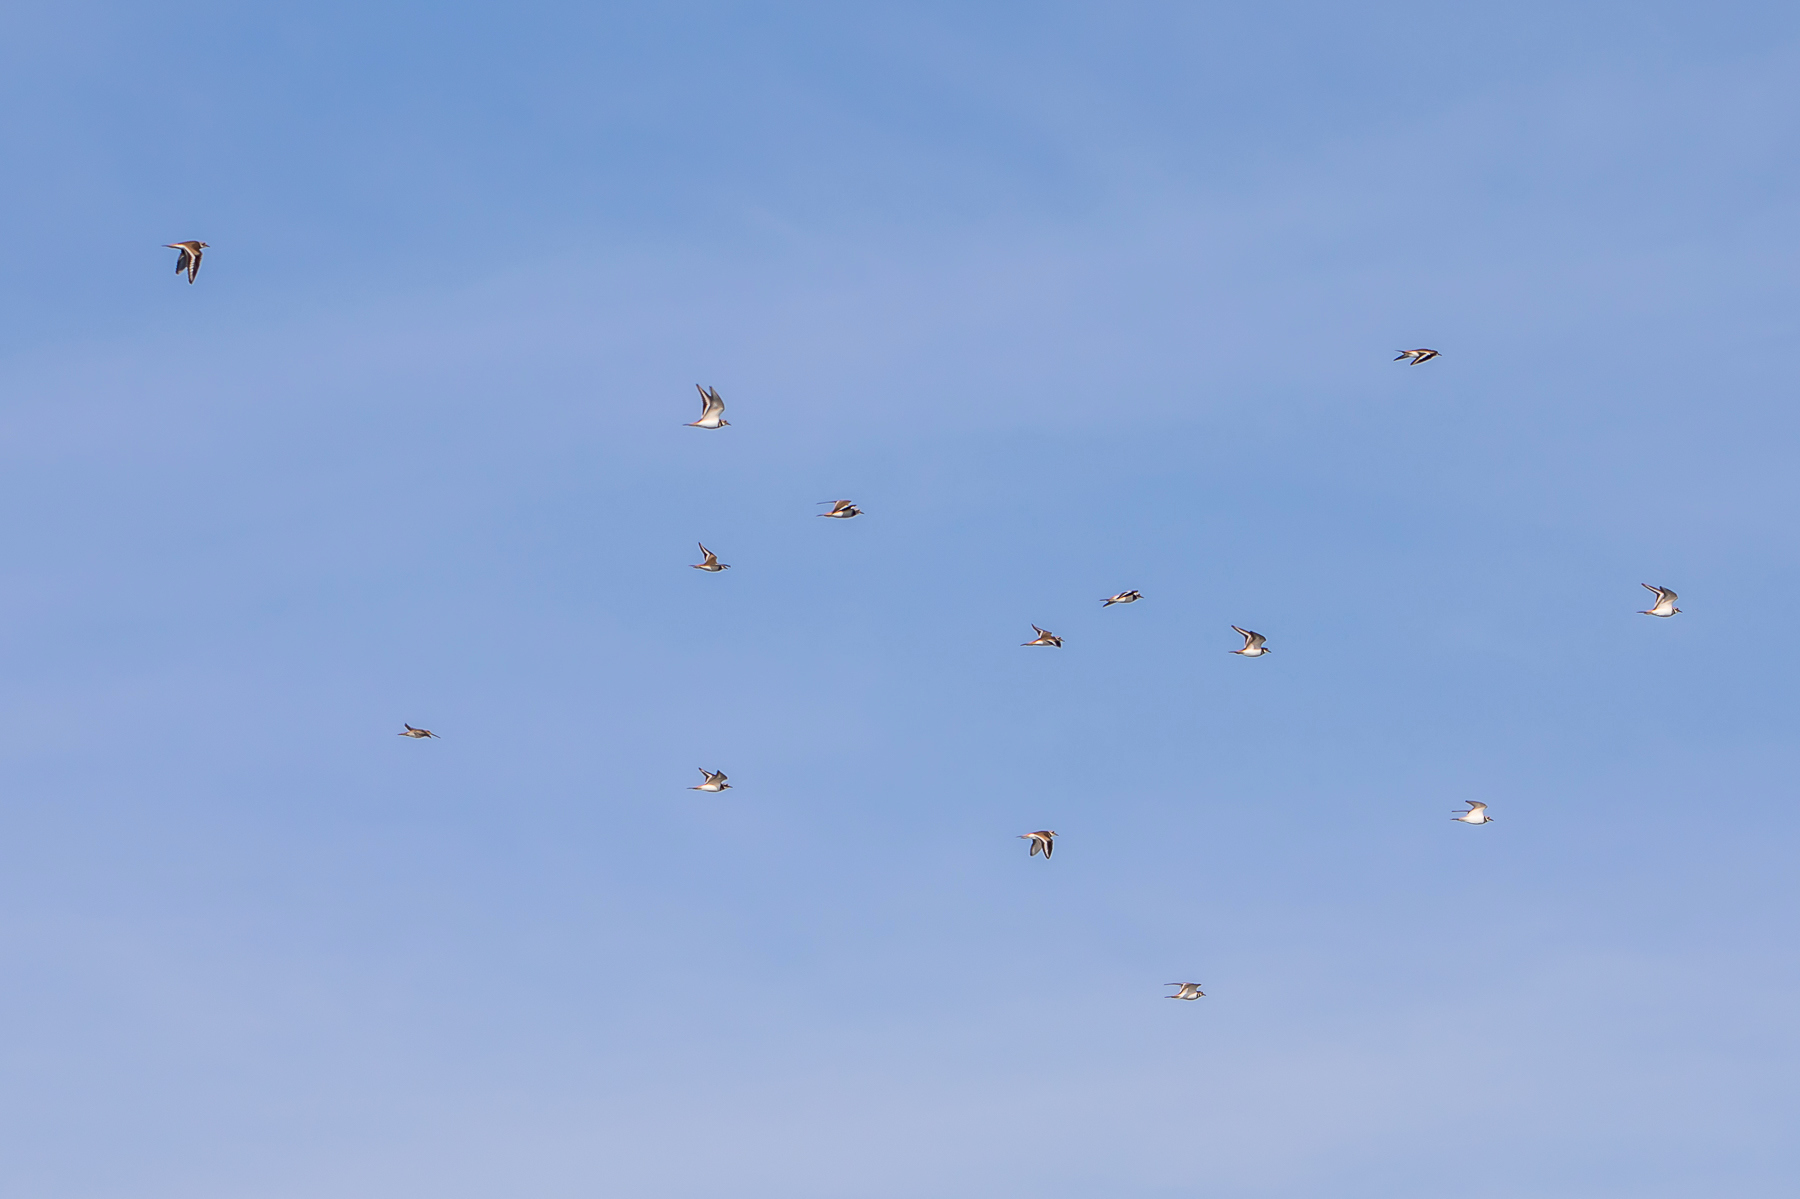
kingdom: Animalia
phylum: Chordata
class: Aves
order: Charadriiformes
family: Charadriidae
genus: Charadrius
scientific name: Charadrius vociferus
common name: Killdeer
